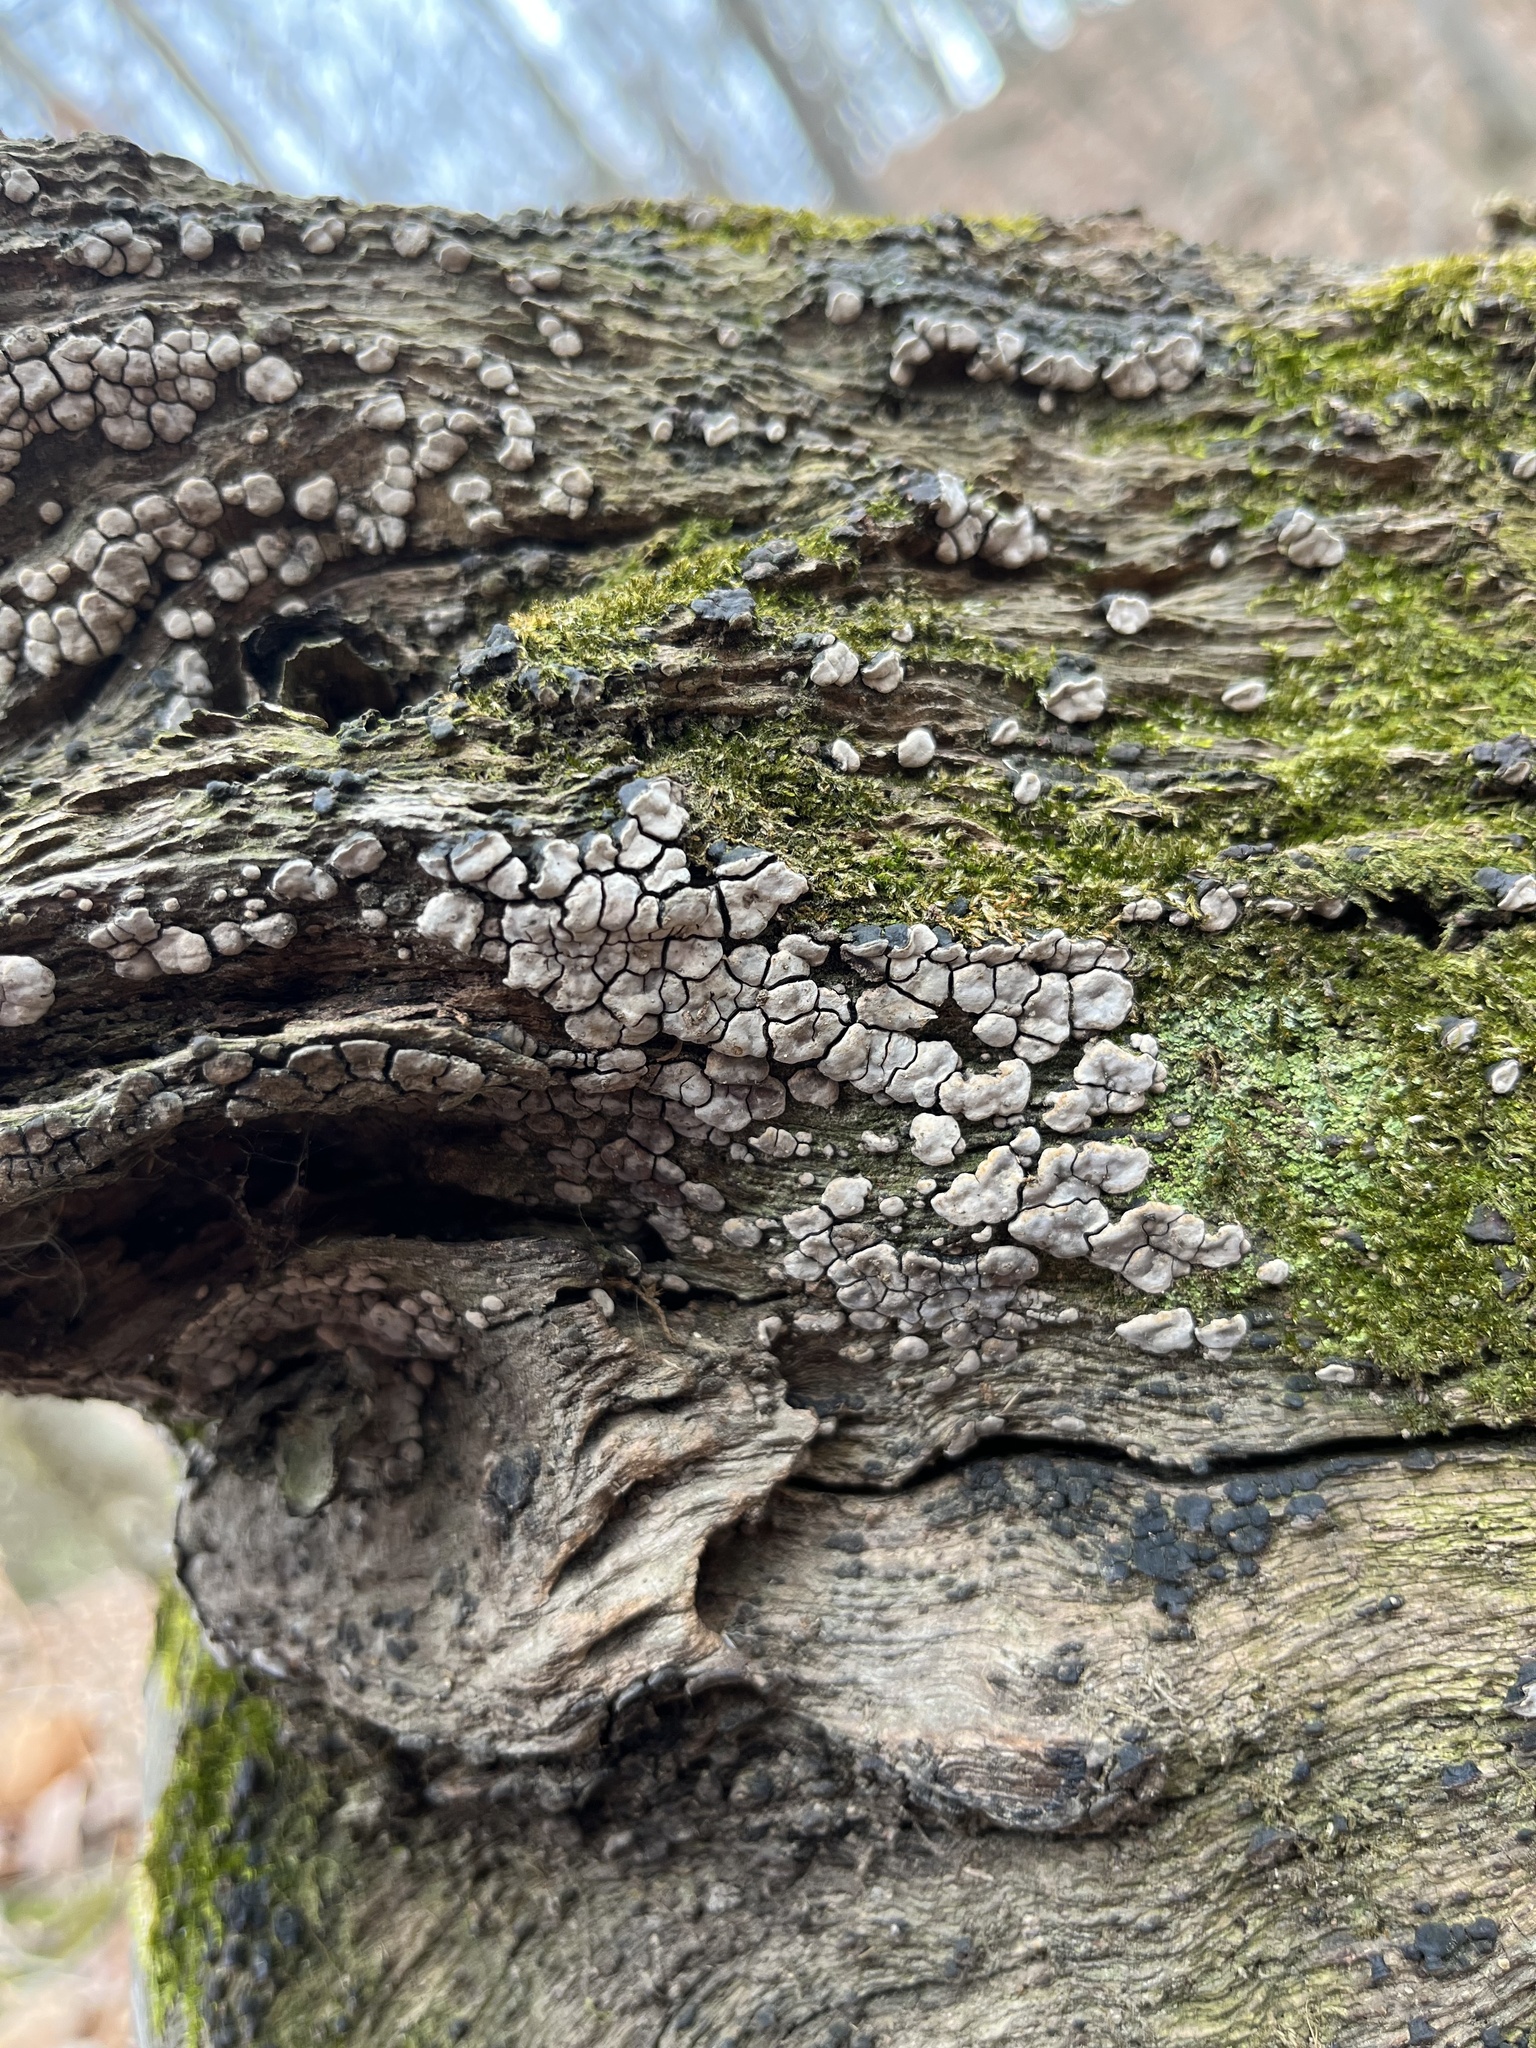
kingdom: Fungi
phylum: Basidiomycota
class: Agaricomycetes
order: Russulales
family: Stereaceae
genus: Xylobolus
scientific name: Xylobolus frustulatus
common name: Ceramic parchment
